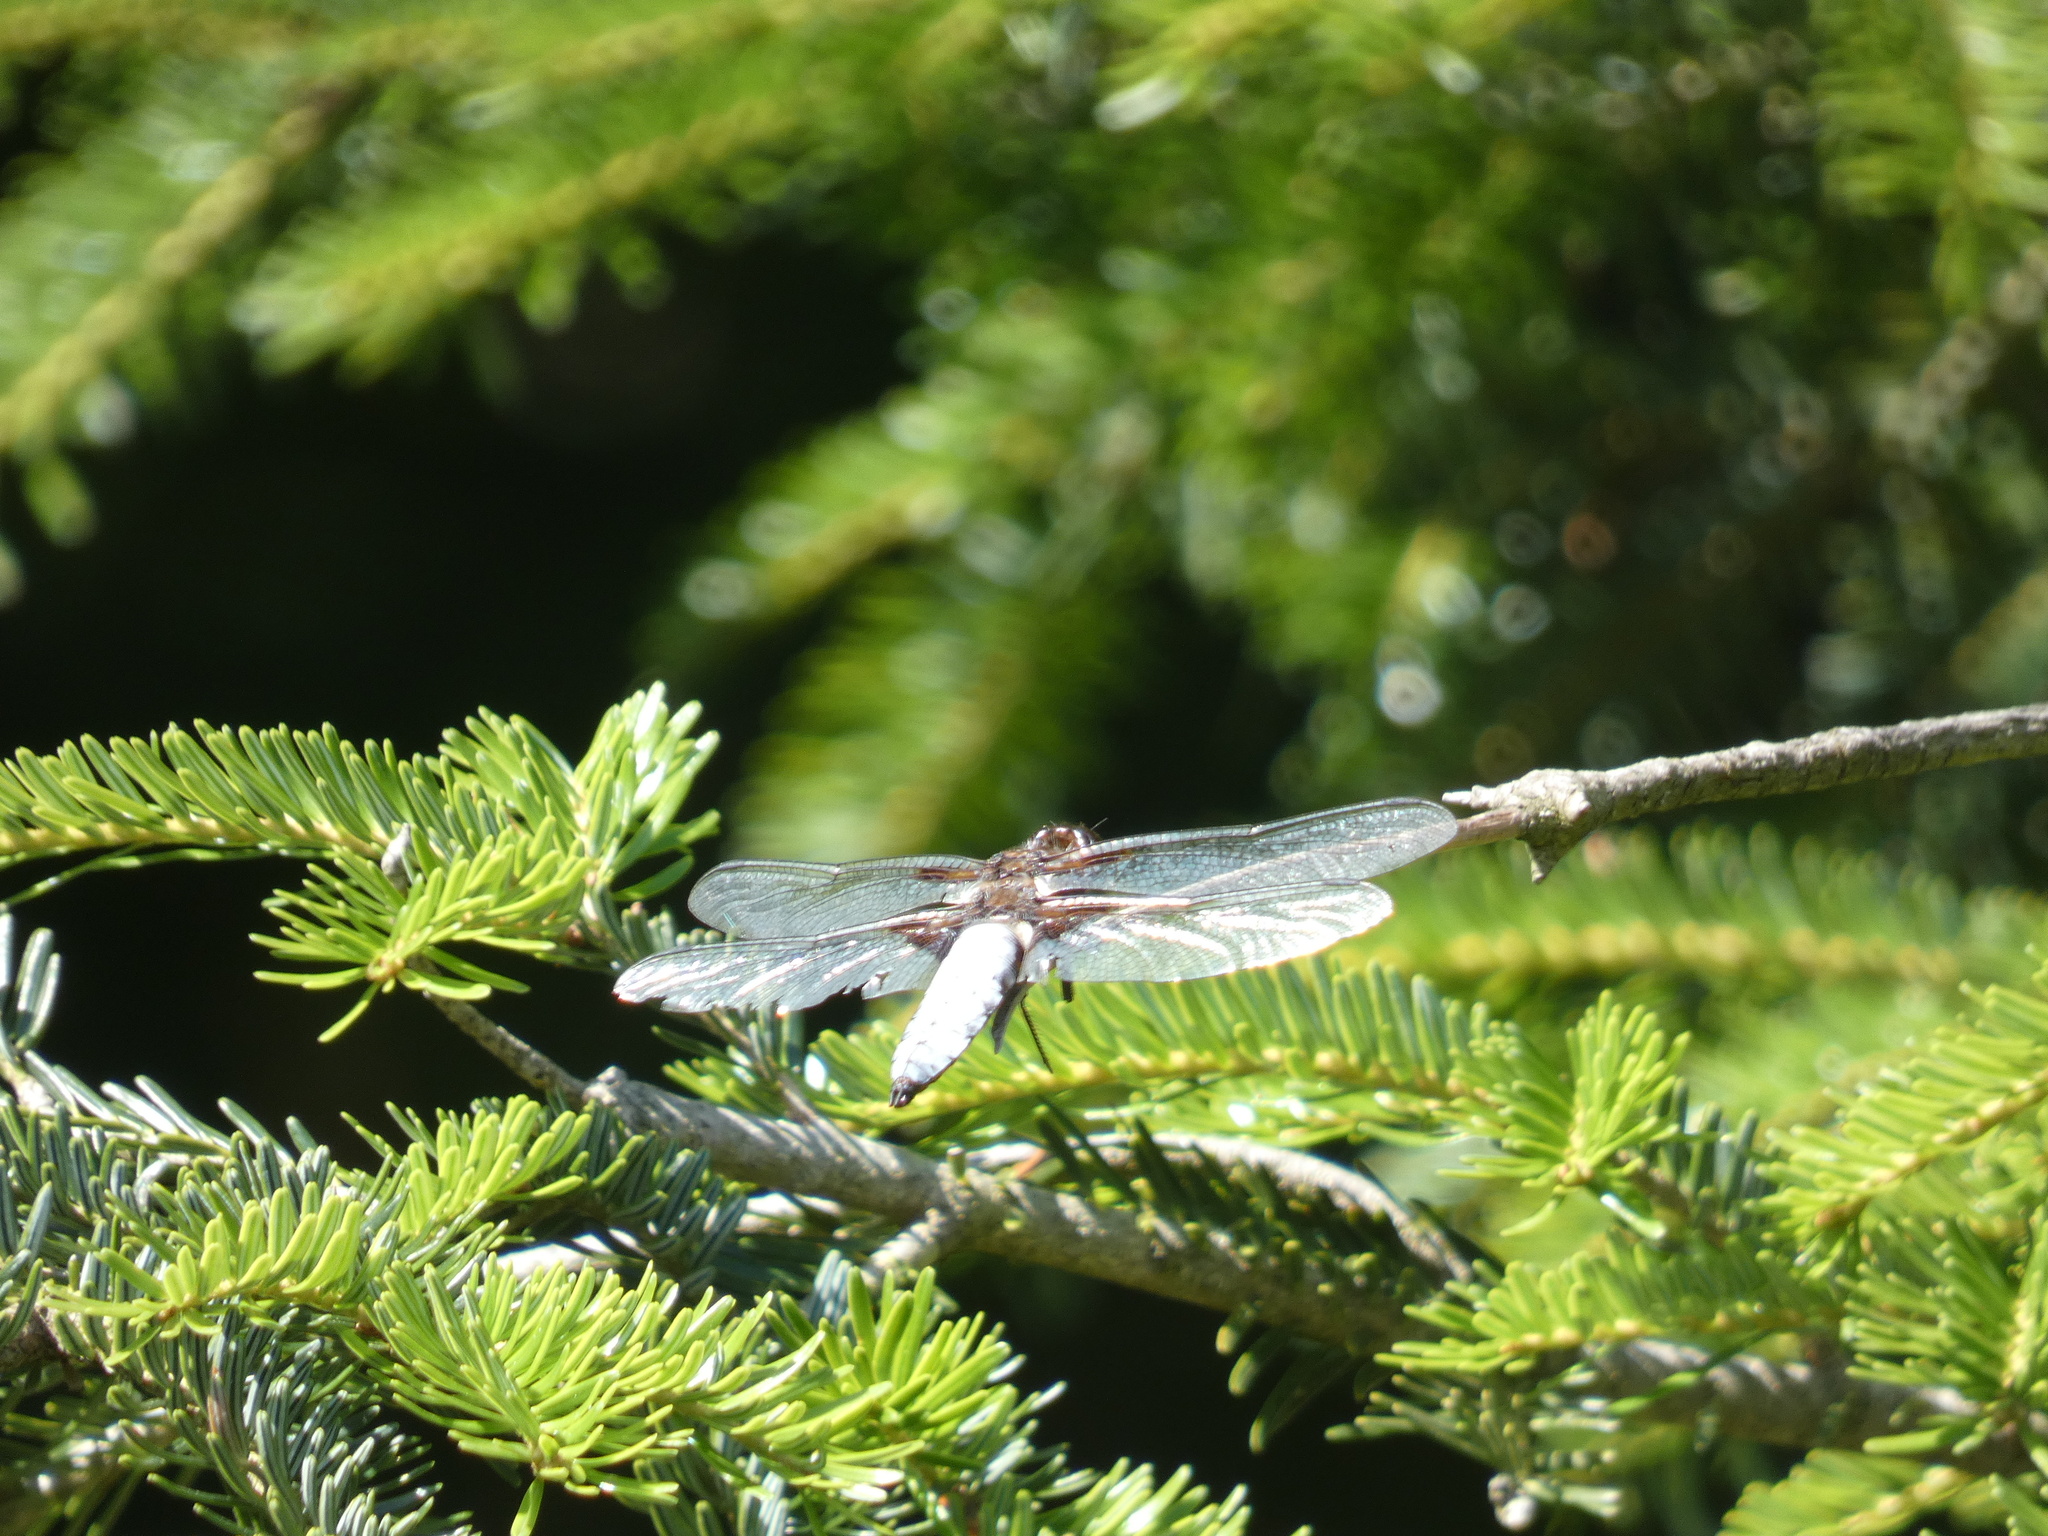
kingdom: Animalia
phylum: Arthropoda
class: Insecta
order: Odonata
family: Libellulidae
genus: Libellula
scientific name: Libellula depressa
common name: Broad-bodied chaser
